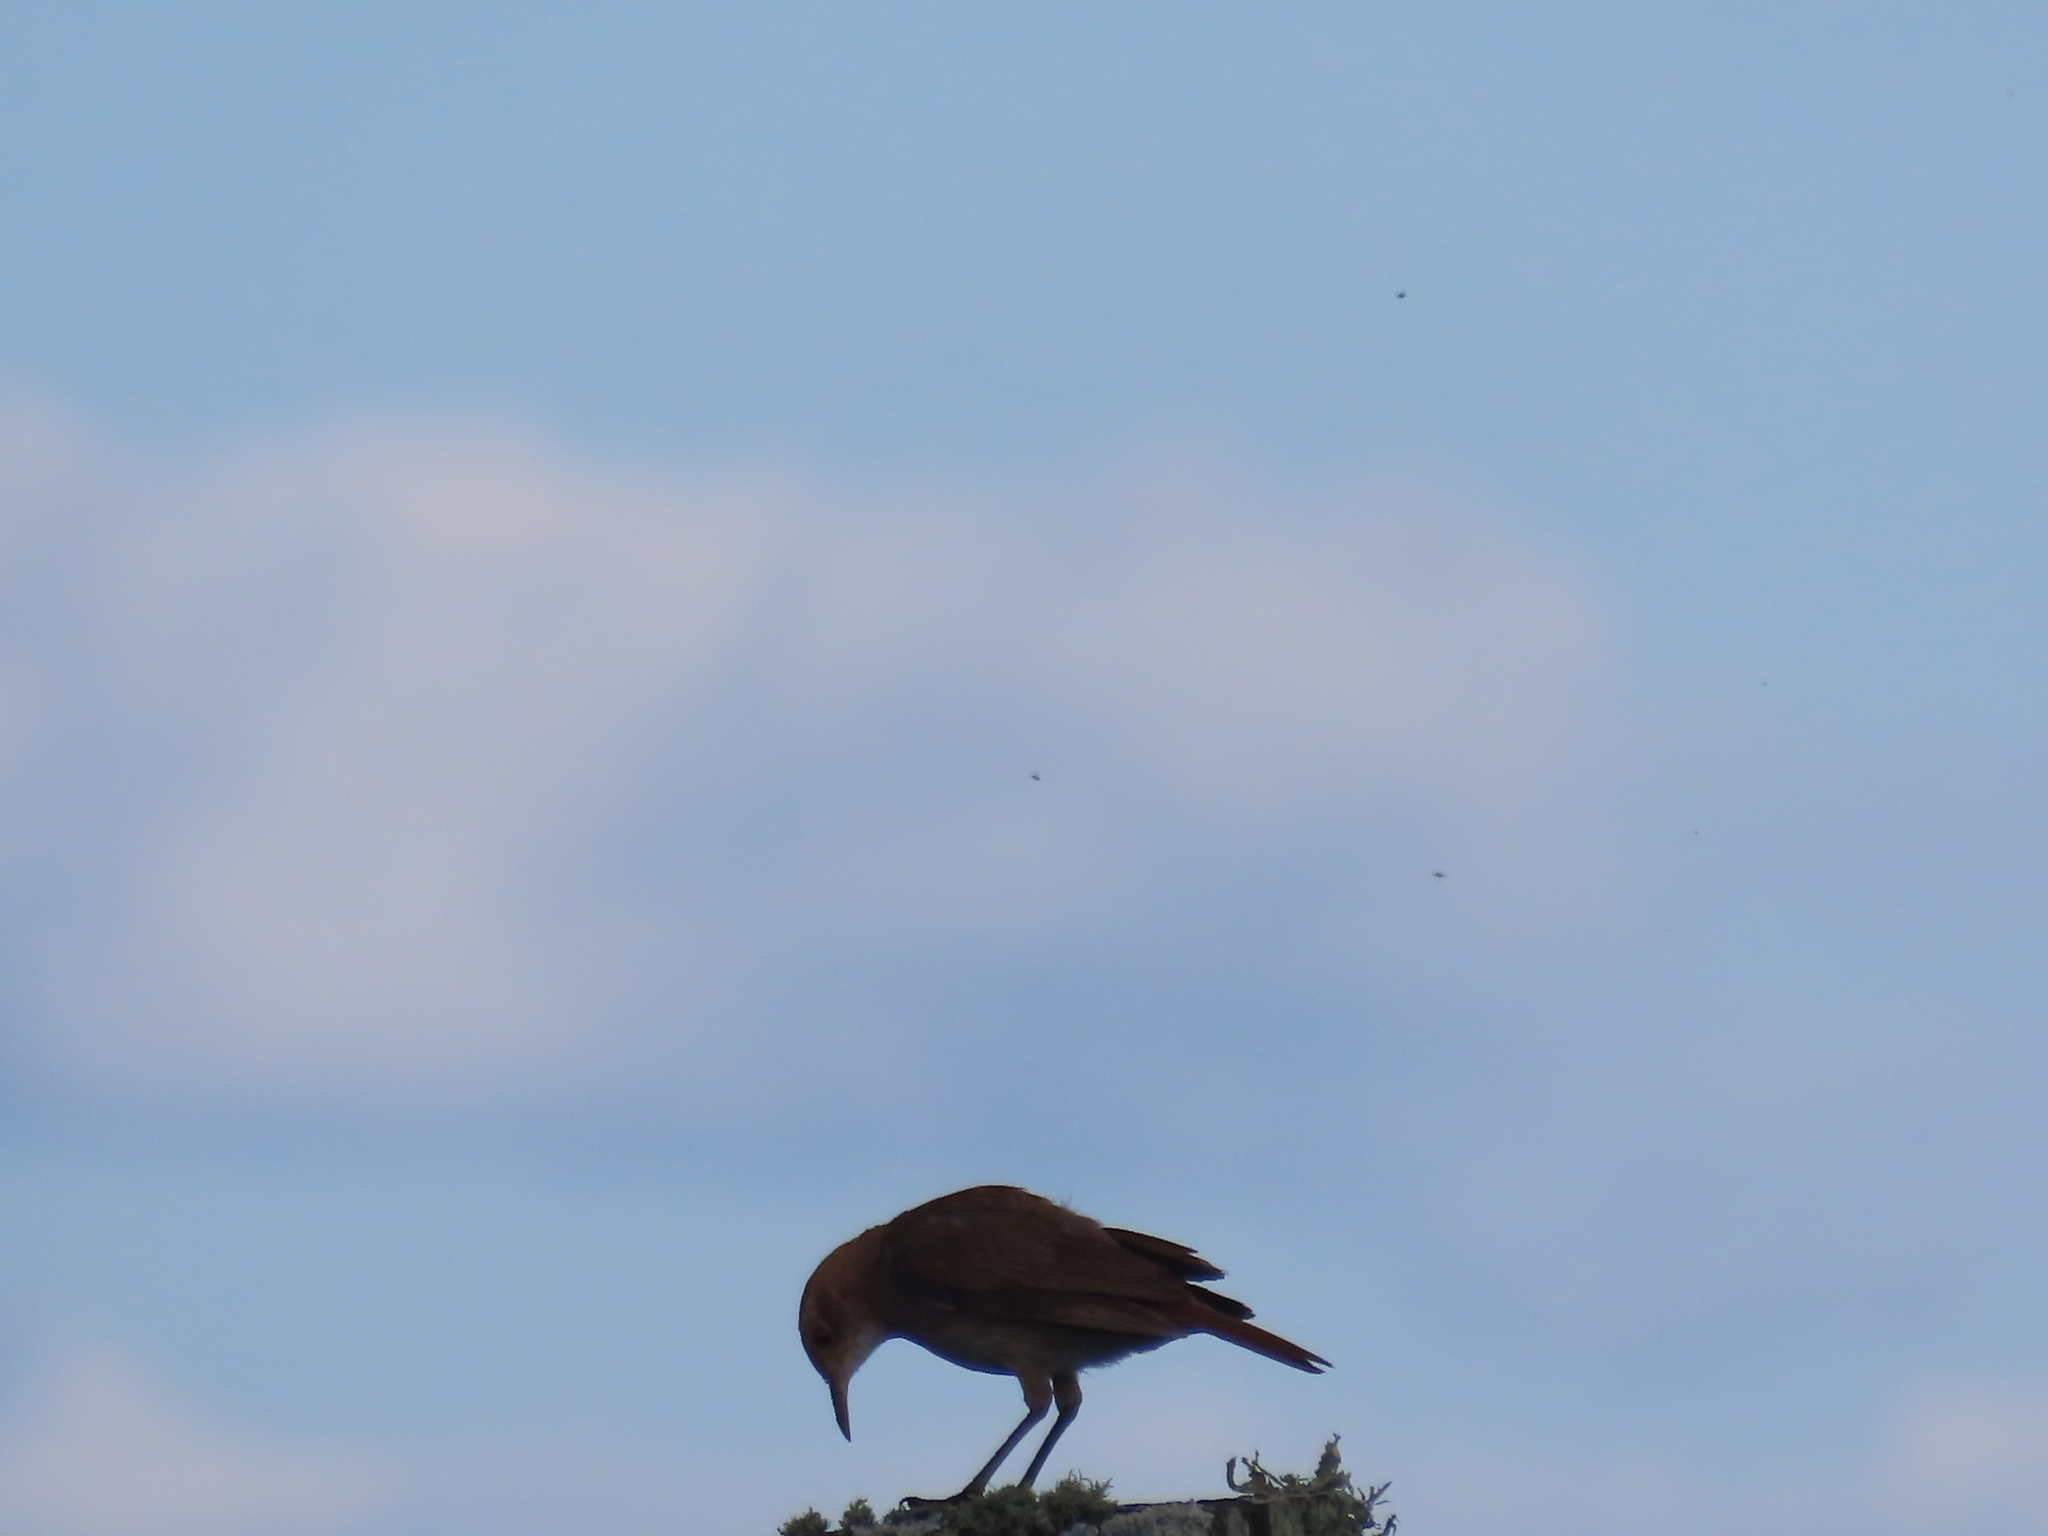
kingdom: Animalia
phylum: Chordata
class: Aves
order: Passeriformes
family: Furnariidae
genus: Furnarius
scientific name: Furnarius rufus
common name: Rufous hornero
